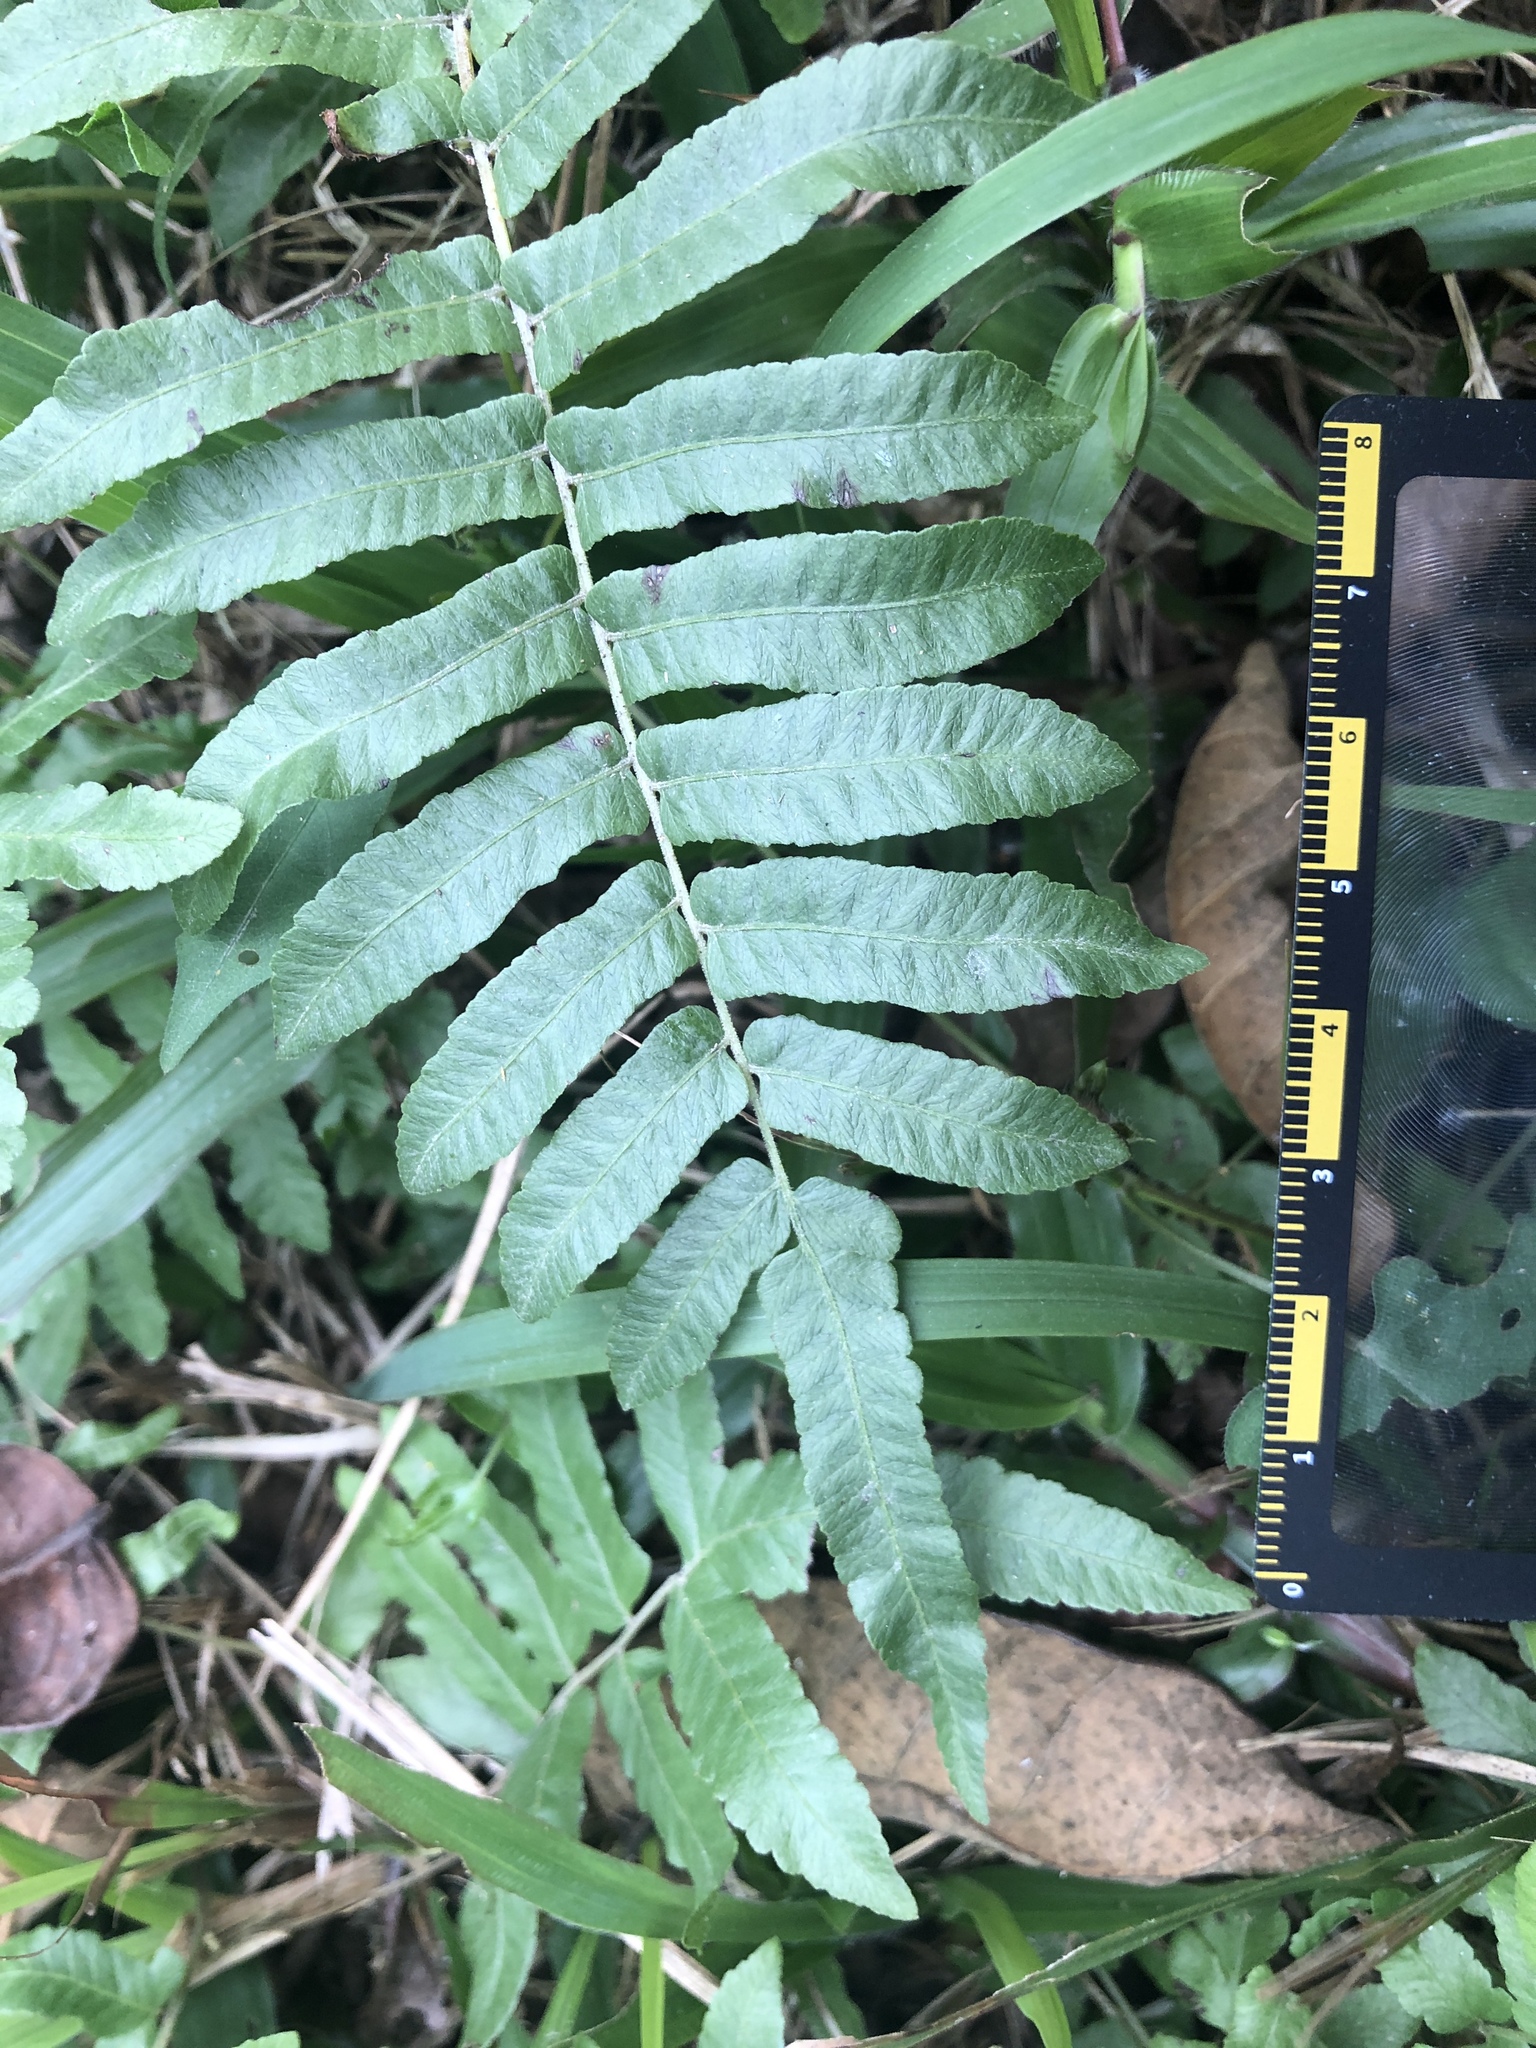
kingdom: Plantae
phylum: Tracheophyta
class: Polypodiopsida
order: Polypodiales
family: Thelypteridaceae
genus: Ampelopteris
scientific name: Ampelopteris prolifera
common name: Riverine scrambler
